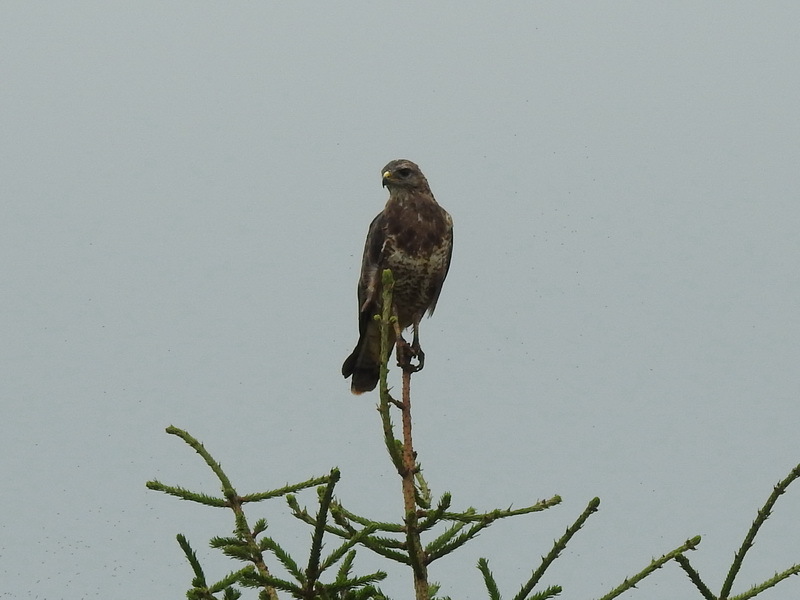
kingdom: Animalia
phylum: Chordata
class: Aves
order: Accipitriformes
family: Accipitridae
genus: Buteo
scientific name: Buteo buteo
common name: Common buzzard
